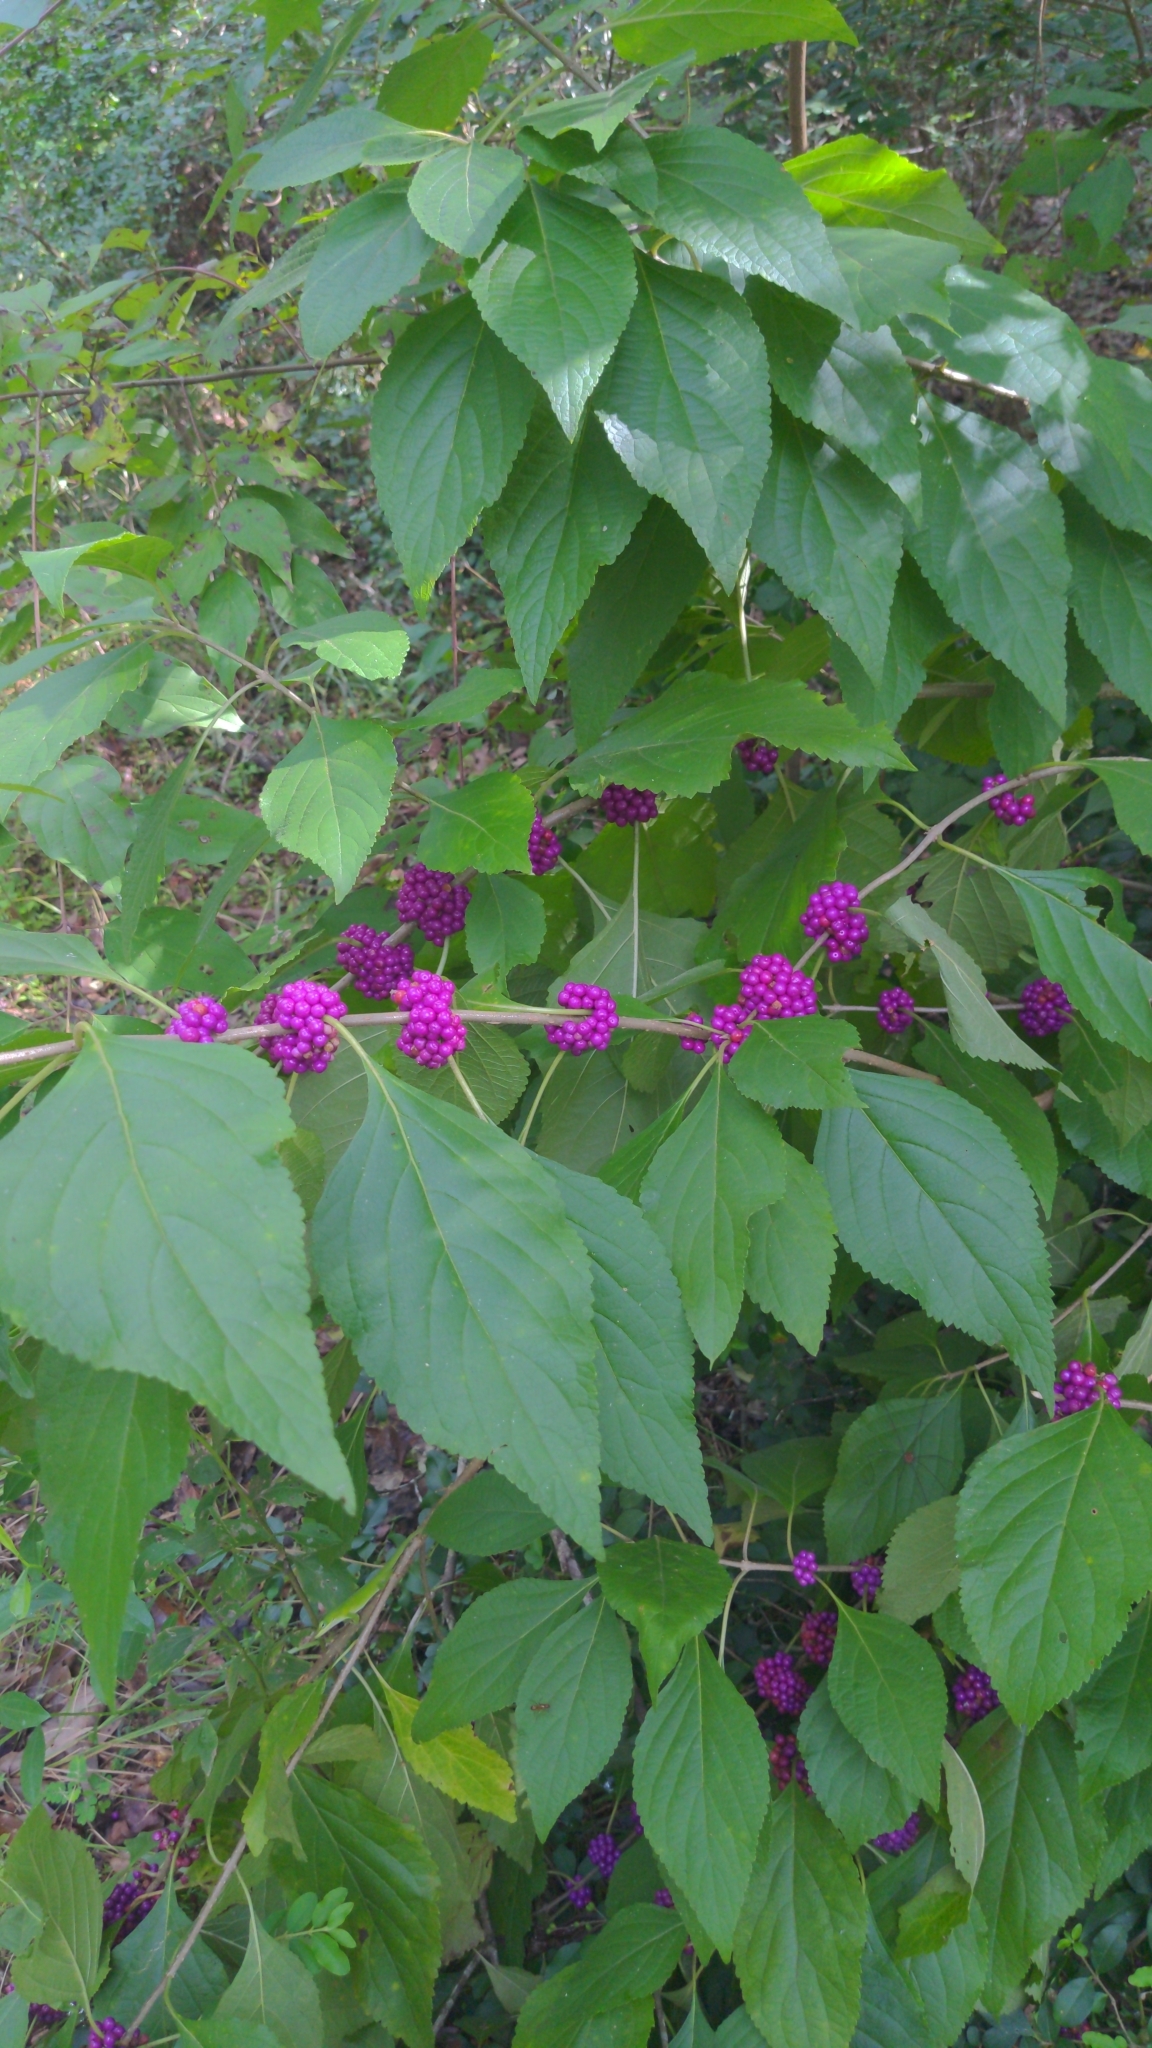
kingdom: Plantae
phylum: Tracheophyta
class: Magnoliopsida
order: Lamiales
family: Lamiaceae
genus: Callicarpa
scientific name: Callicarpa americana
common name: American beautyberry
